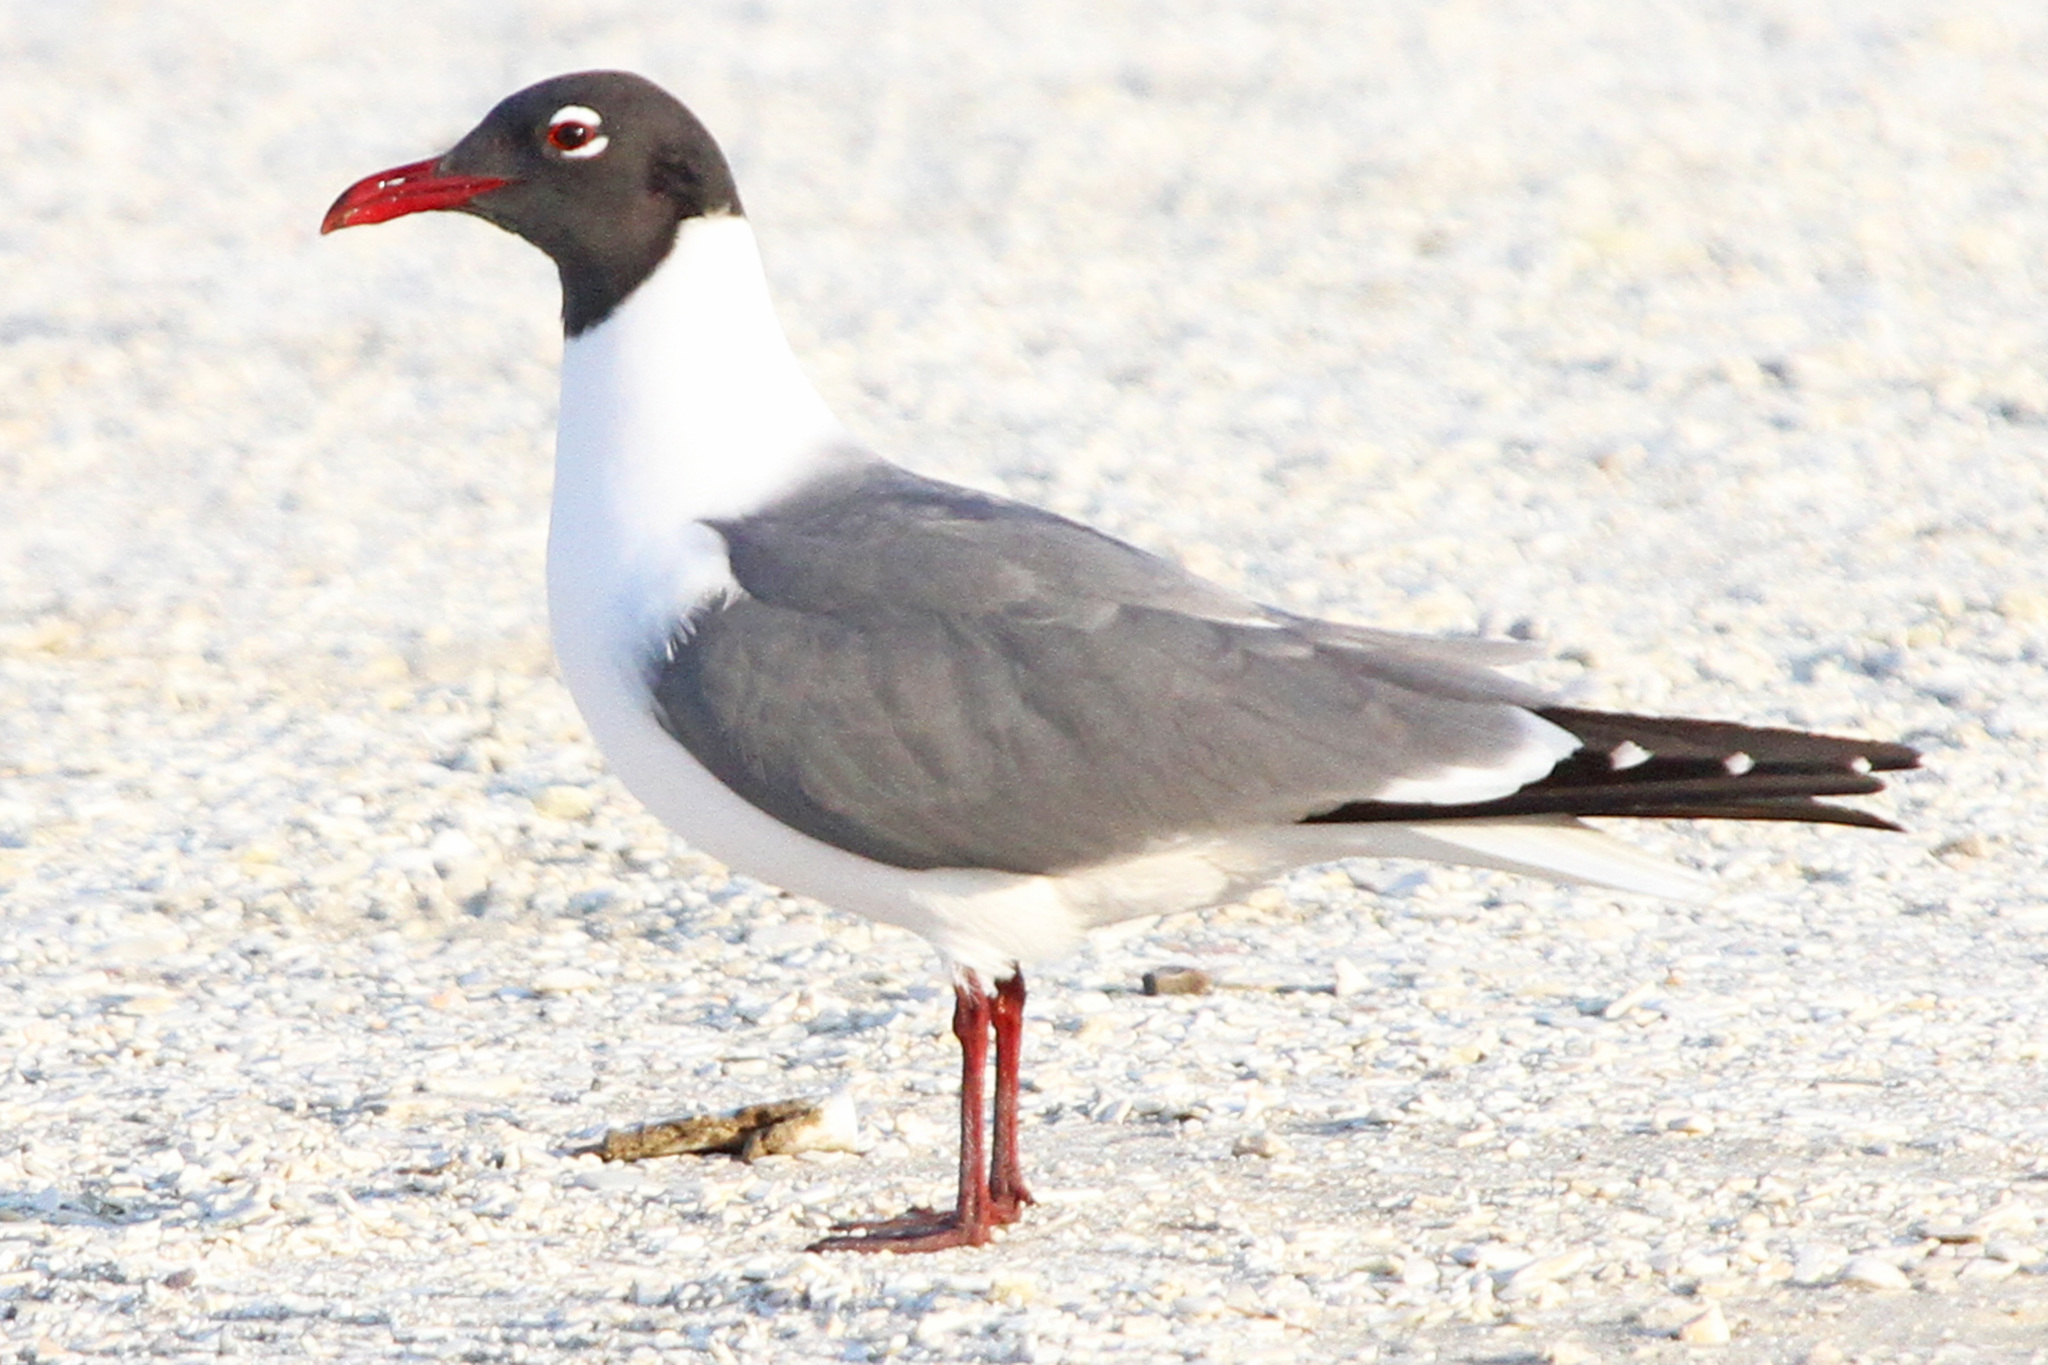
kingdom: Animalia
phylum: Chordata
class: Aves
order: Charadriiformes
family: Laridae
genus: Leucophaeus
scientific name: Leucophaeus atricilla
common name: Laughing gull
